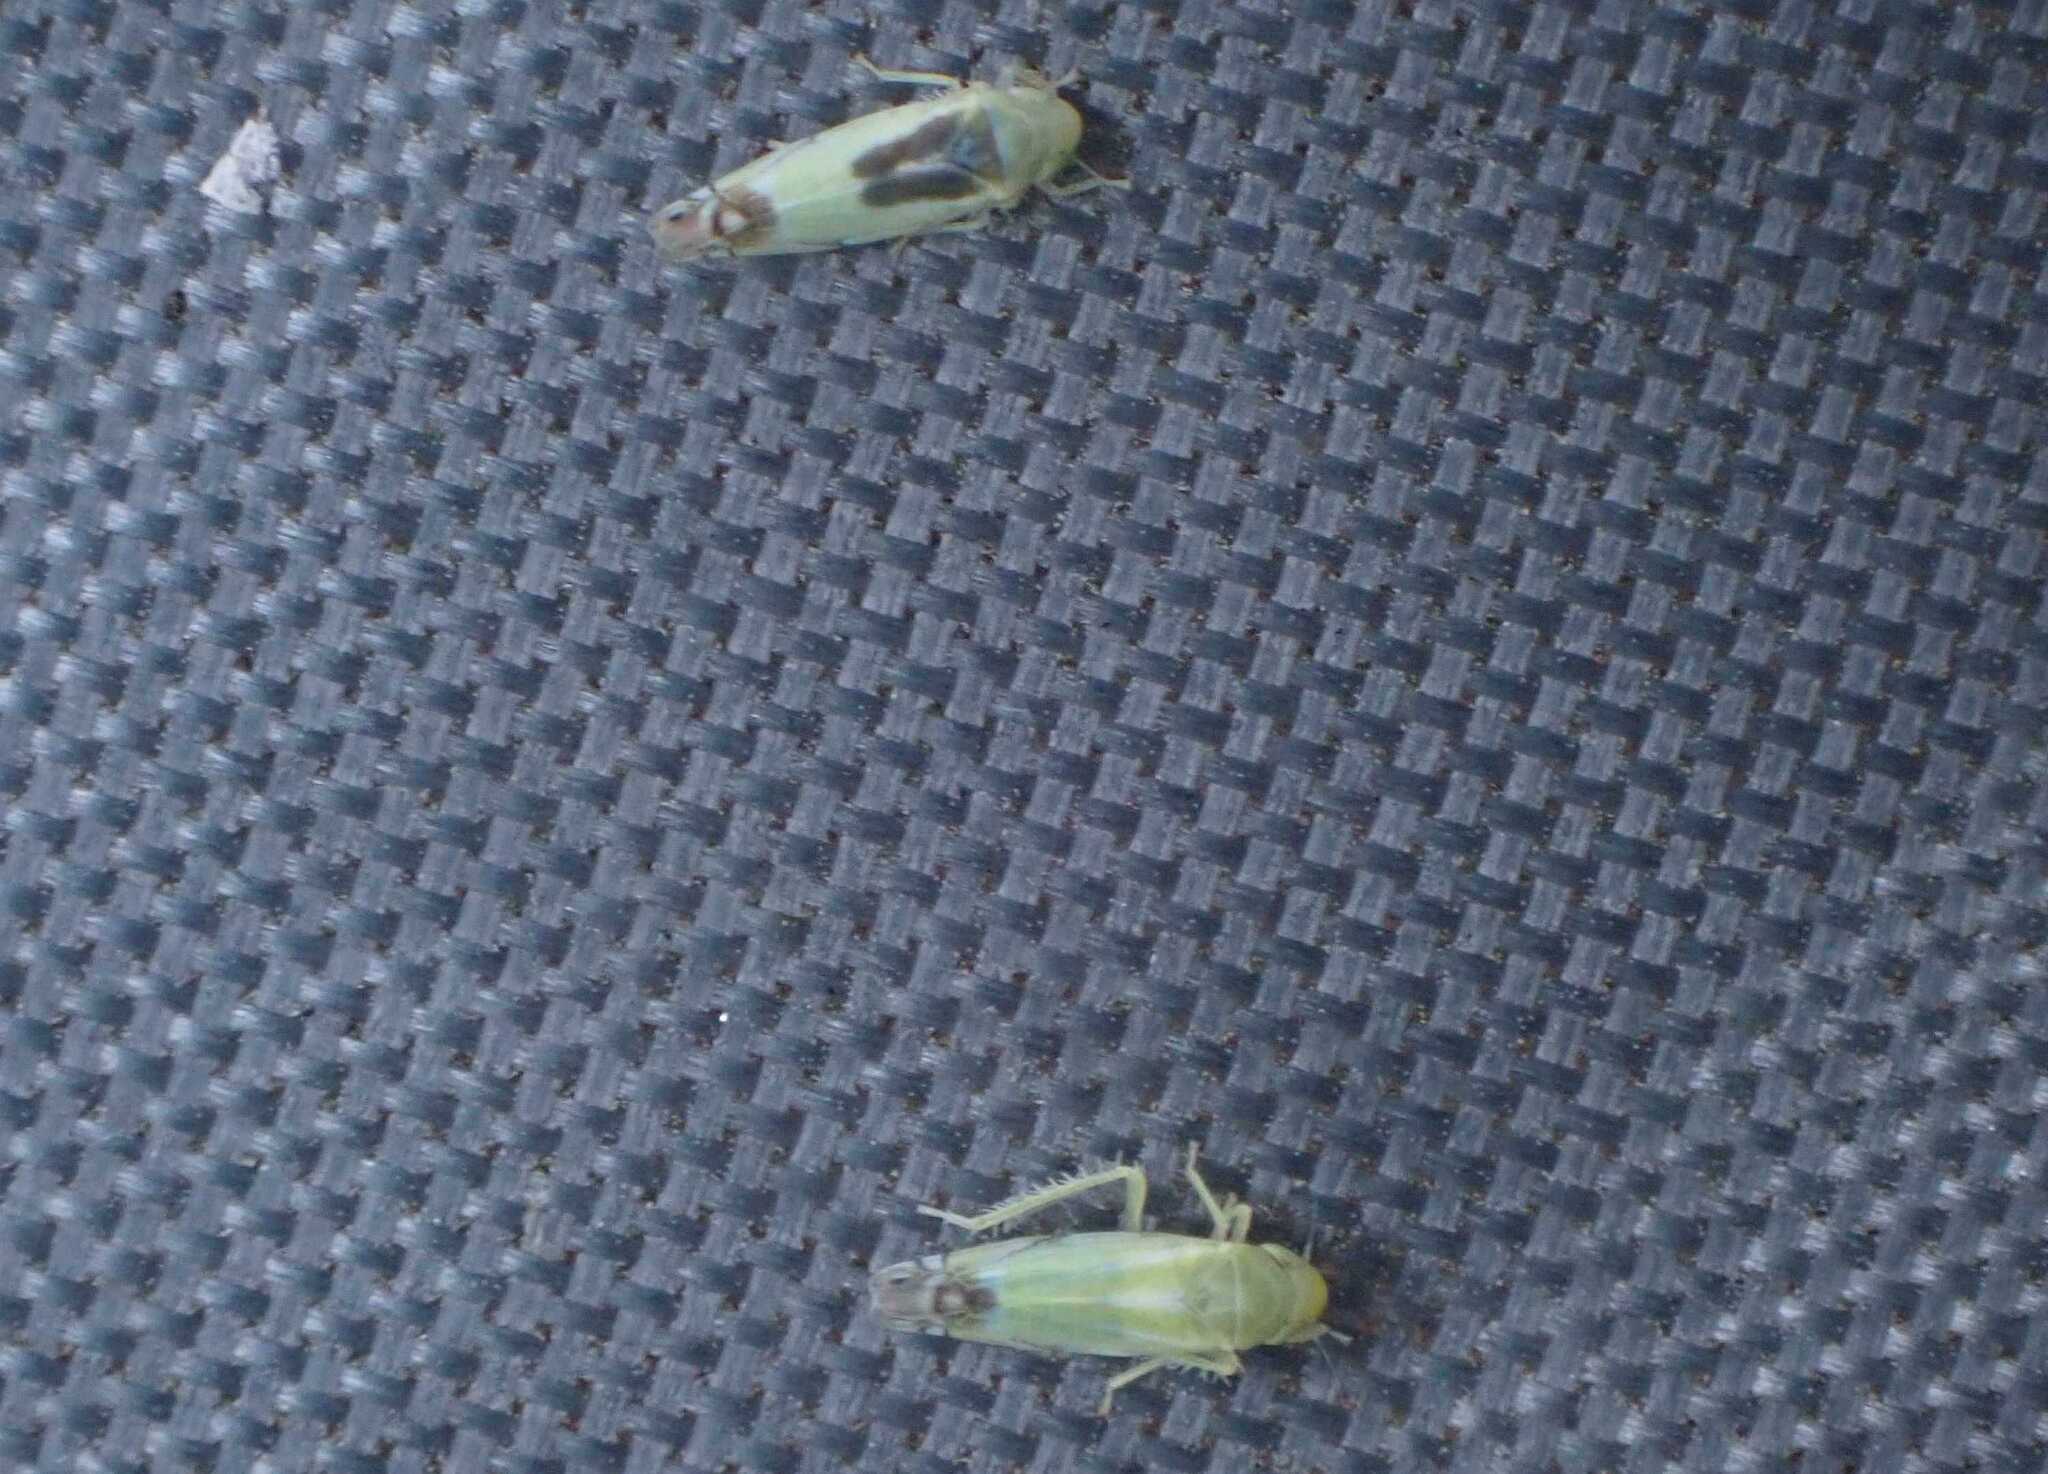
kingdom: Animalia
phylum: Arthropoda
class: Insecta
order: Hemiptera
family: Cicadellidae
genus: Zyginella
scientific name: Zyginella pulchra
